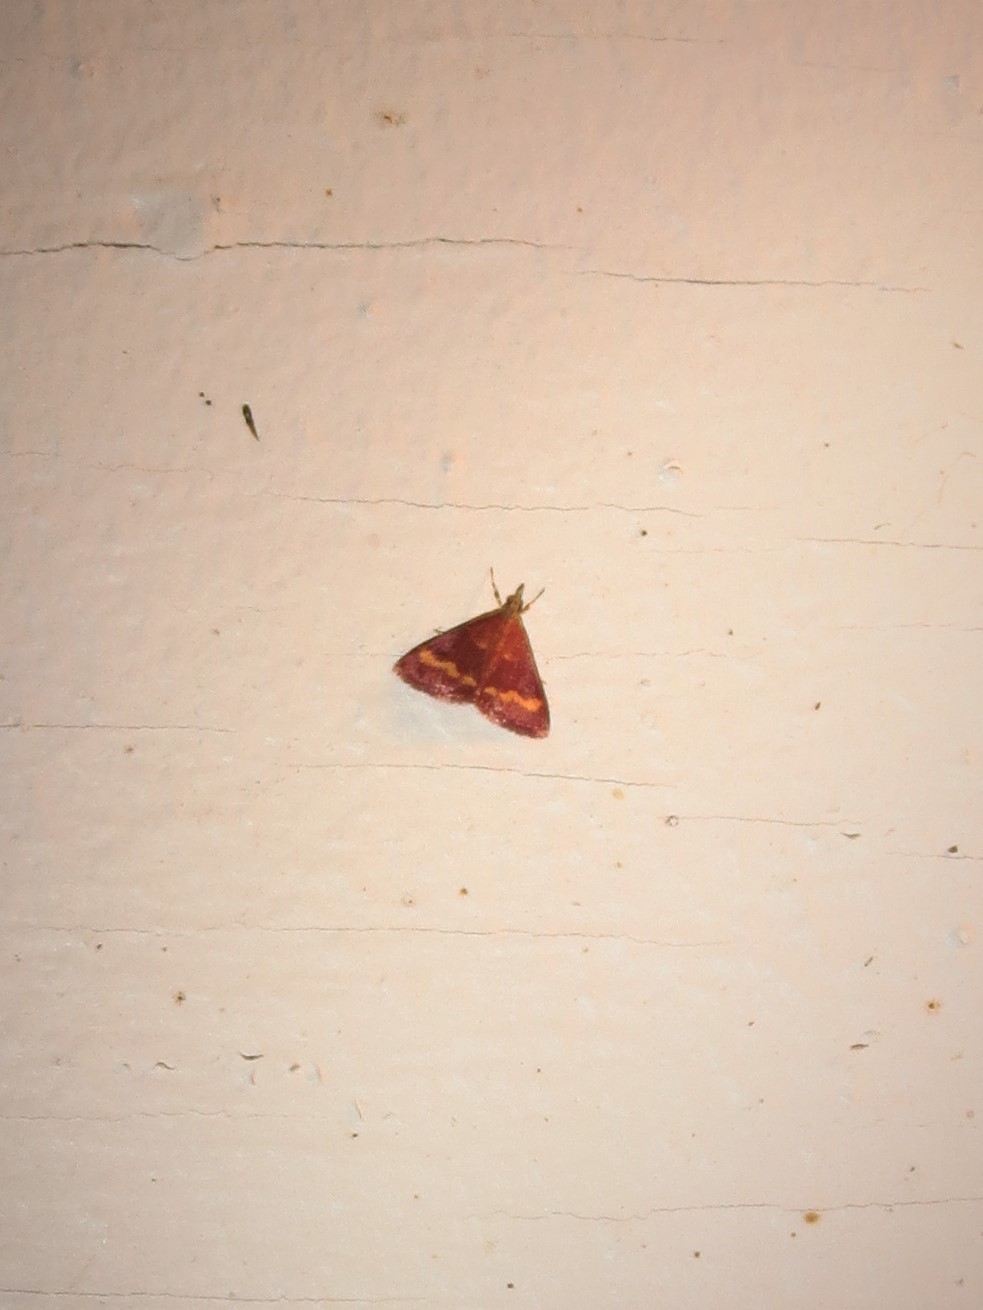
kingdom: Animalia
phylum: Arthropoda
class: Insecta
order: Lepidoptera
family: Crambidae
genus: Pyrausta
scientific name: Pyrausta pseuderosnealis
